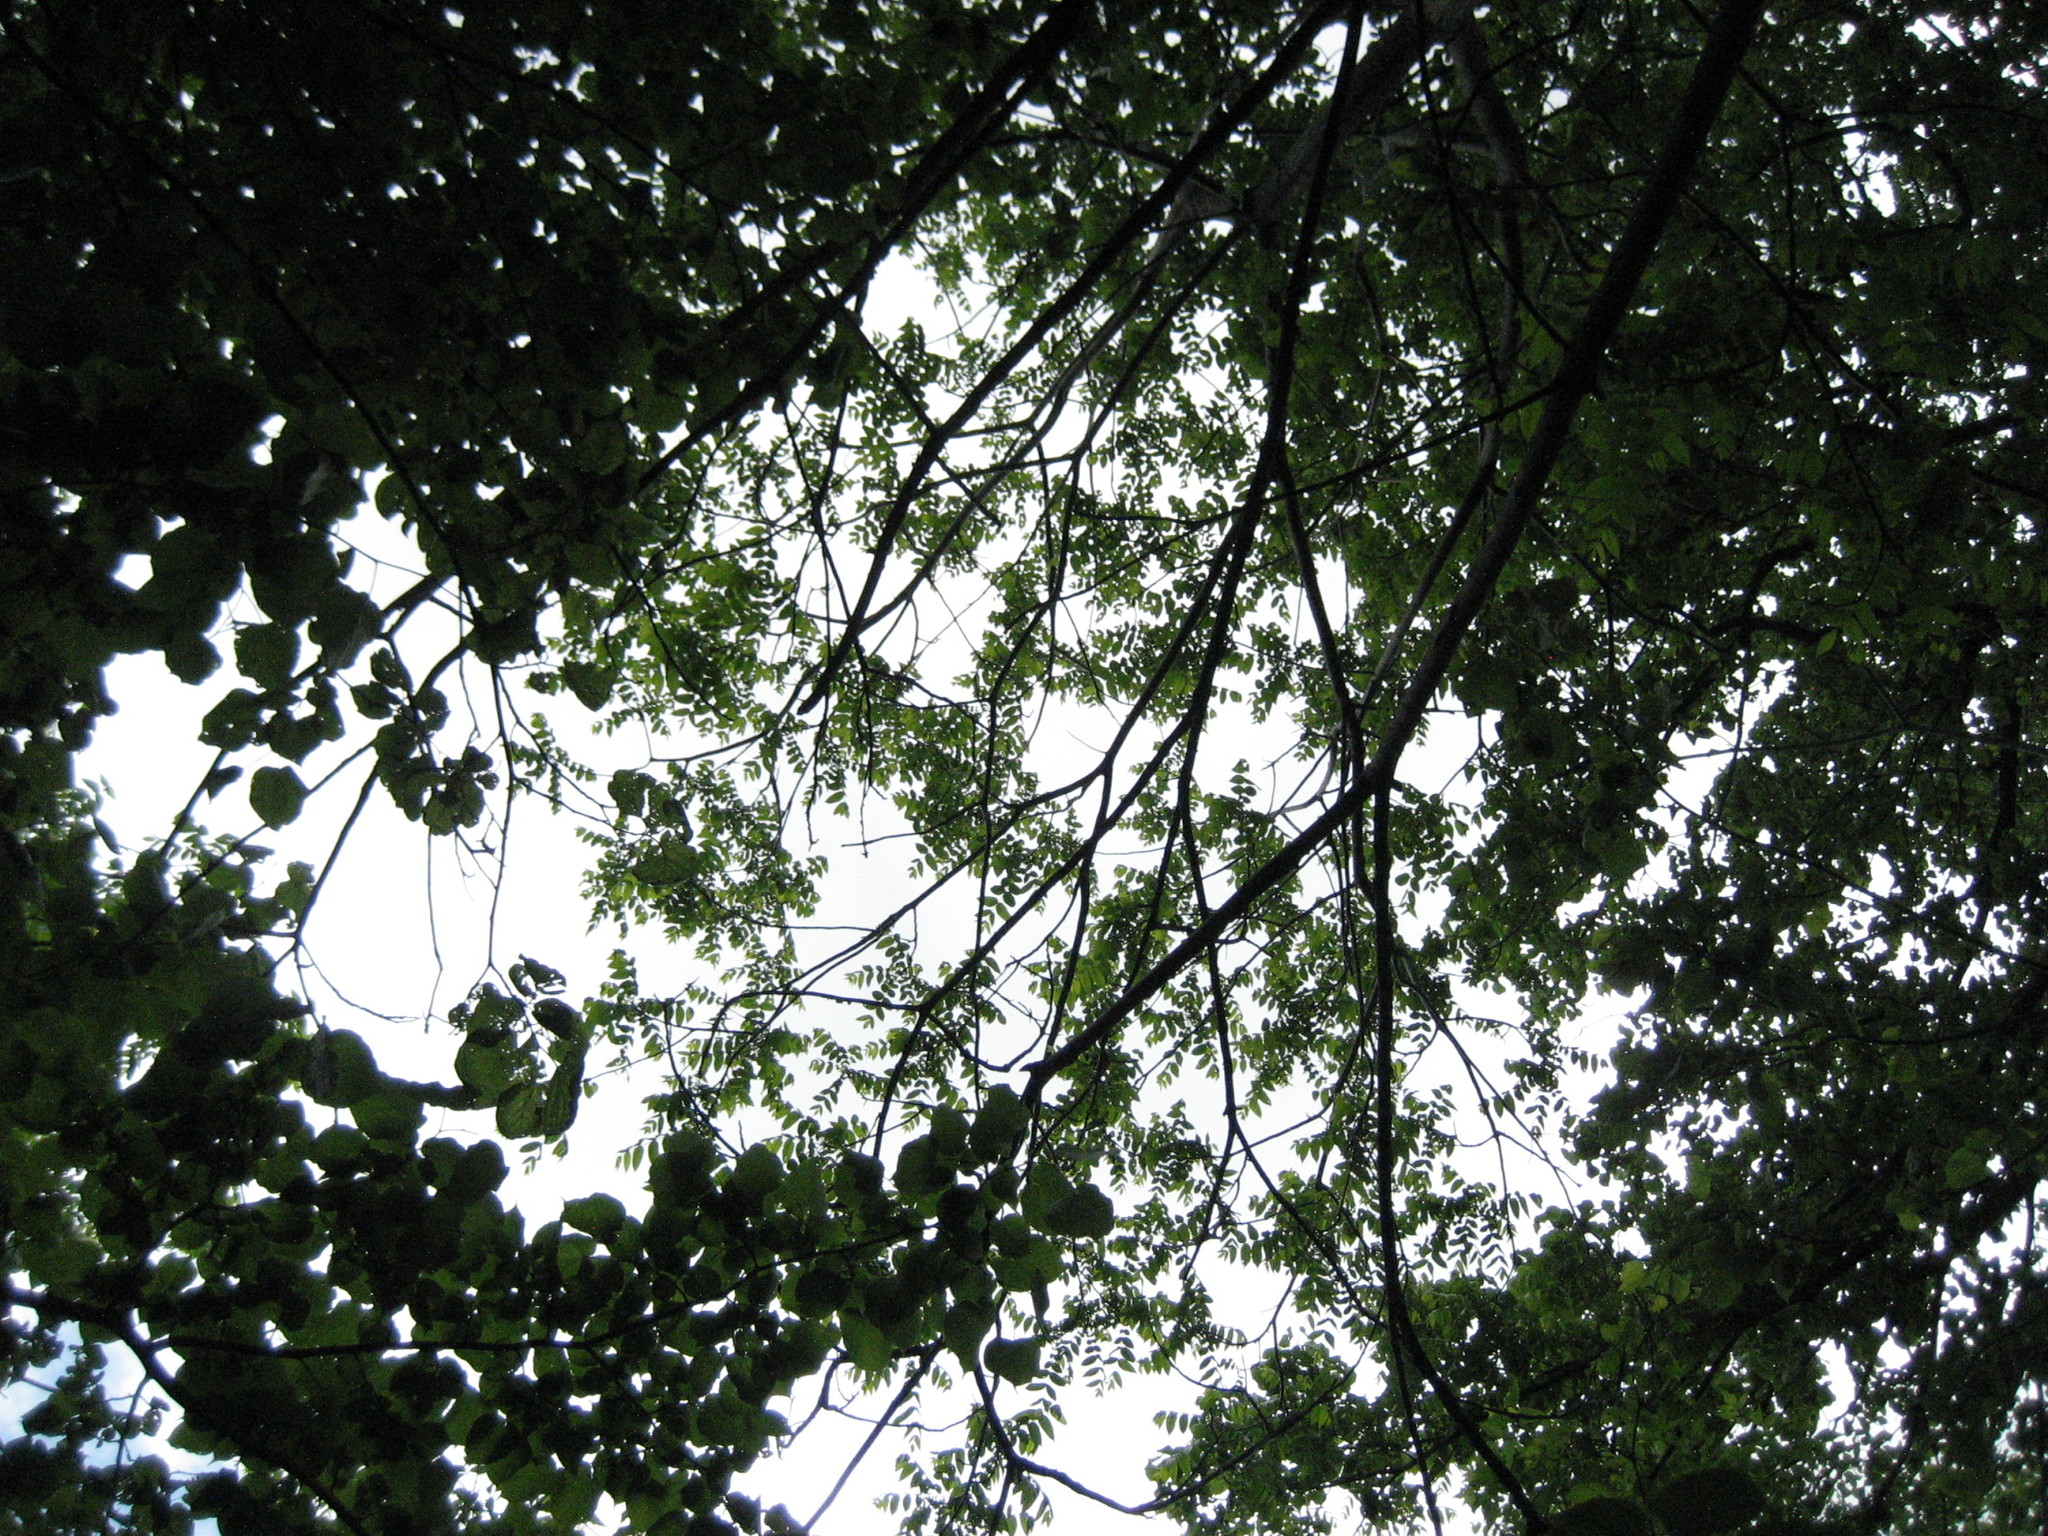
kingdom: Plantae
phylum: Tracheophyta
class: Magnoliopsida
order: Fagales
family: Juglandaceae
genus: Juglans
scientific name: Juglans cinerea
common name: Butternut
